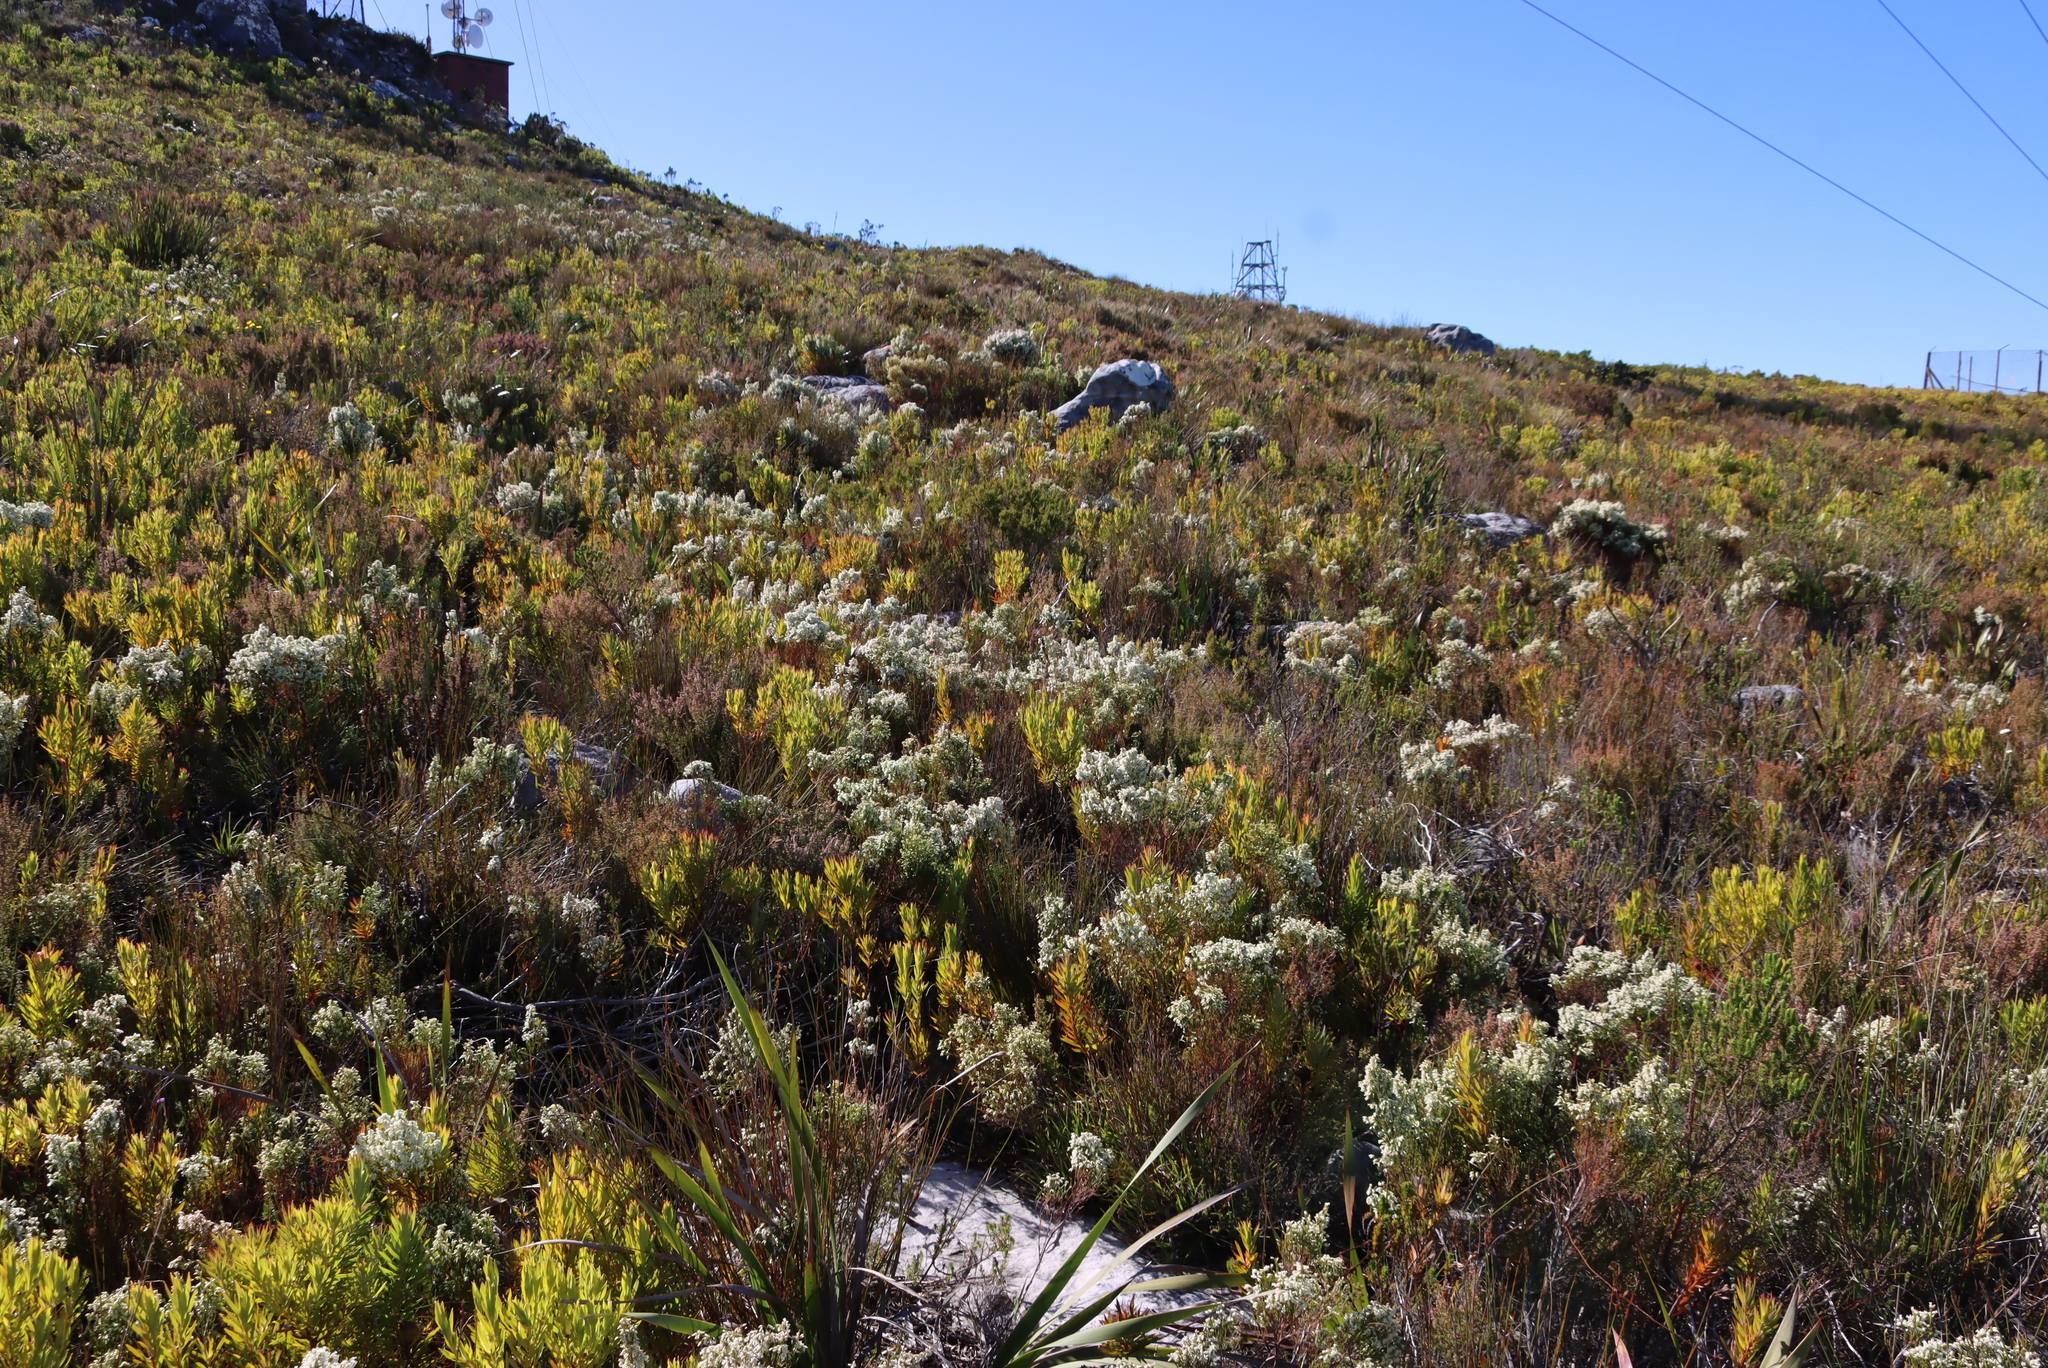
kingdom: Plantae
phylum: Tracheophyta
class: Magnoliopsida
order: Ericales
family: Ericaceae
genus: Erica
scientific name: Erica lutea
